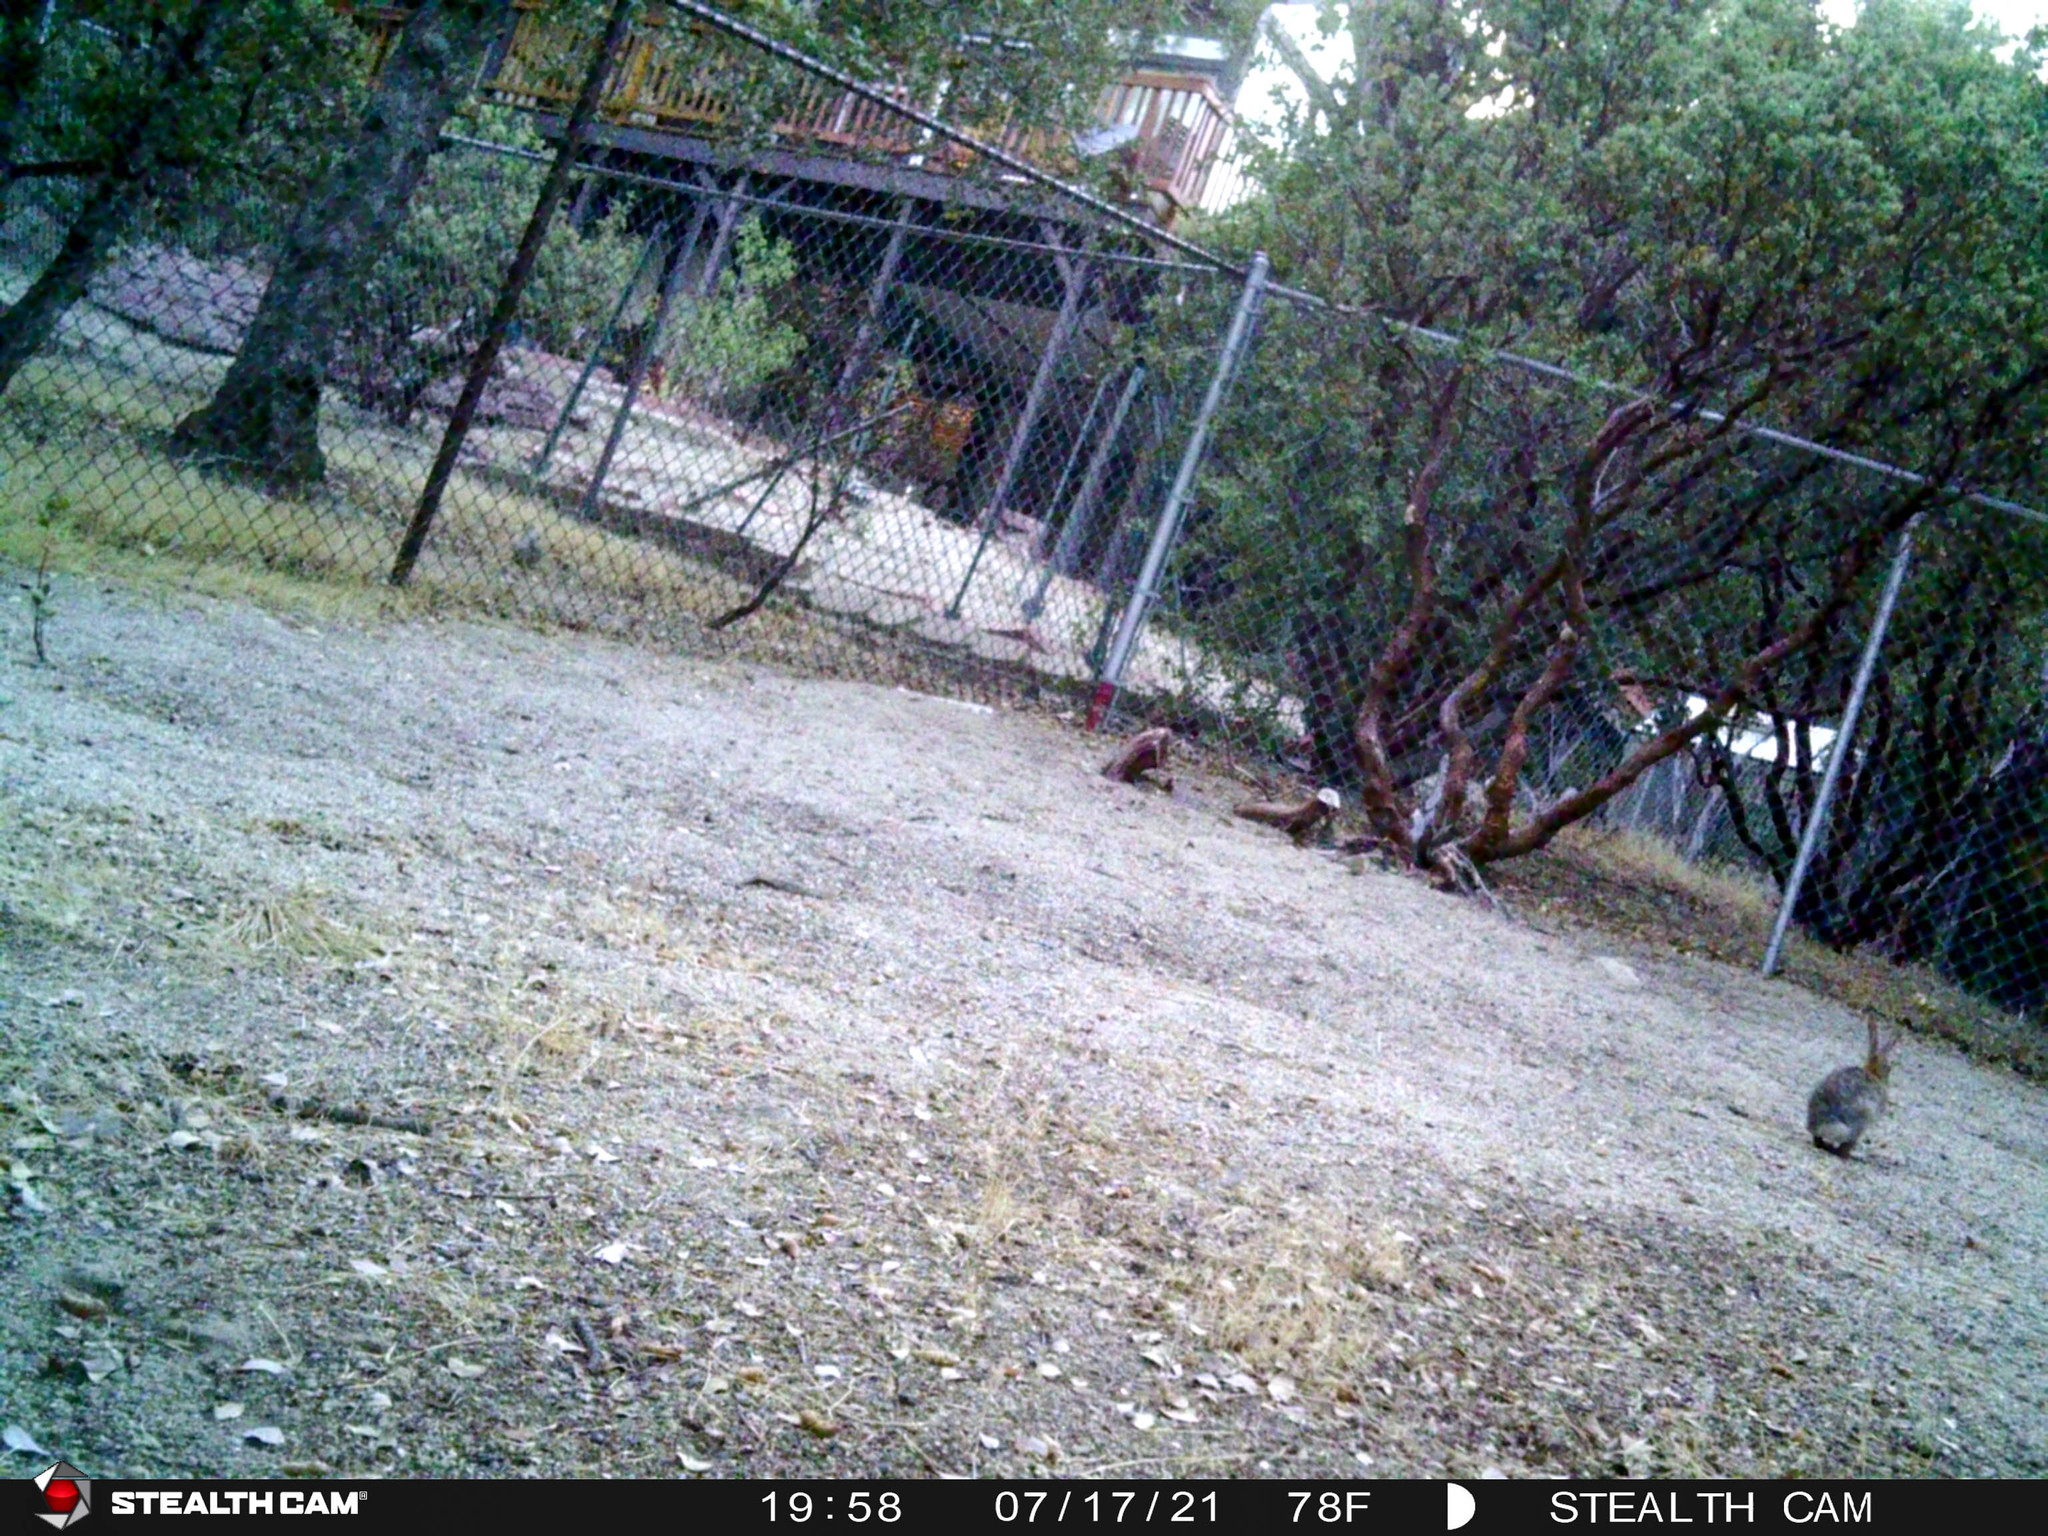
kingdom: Animalia
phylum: Chordata
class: Mammalia
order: Lagomorpha
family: Leporidae
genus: Sylvilagus
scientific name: Sylvilagus audubonii
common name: Desert cottontail
